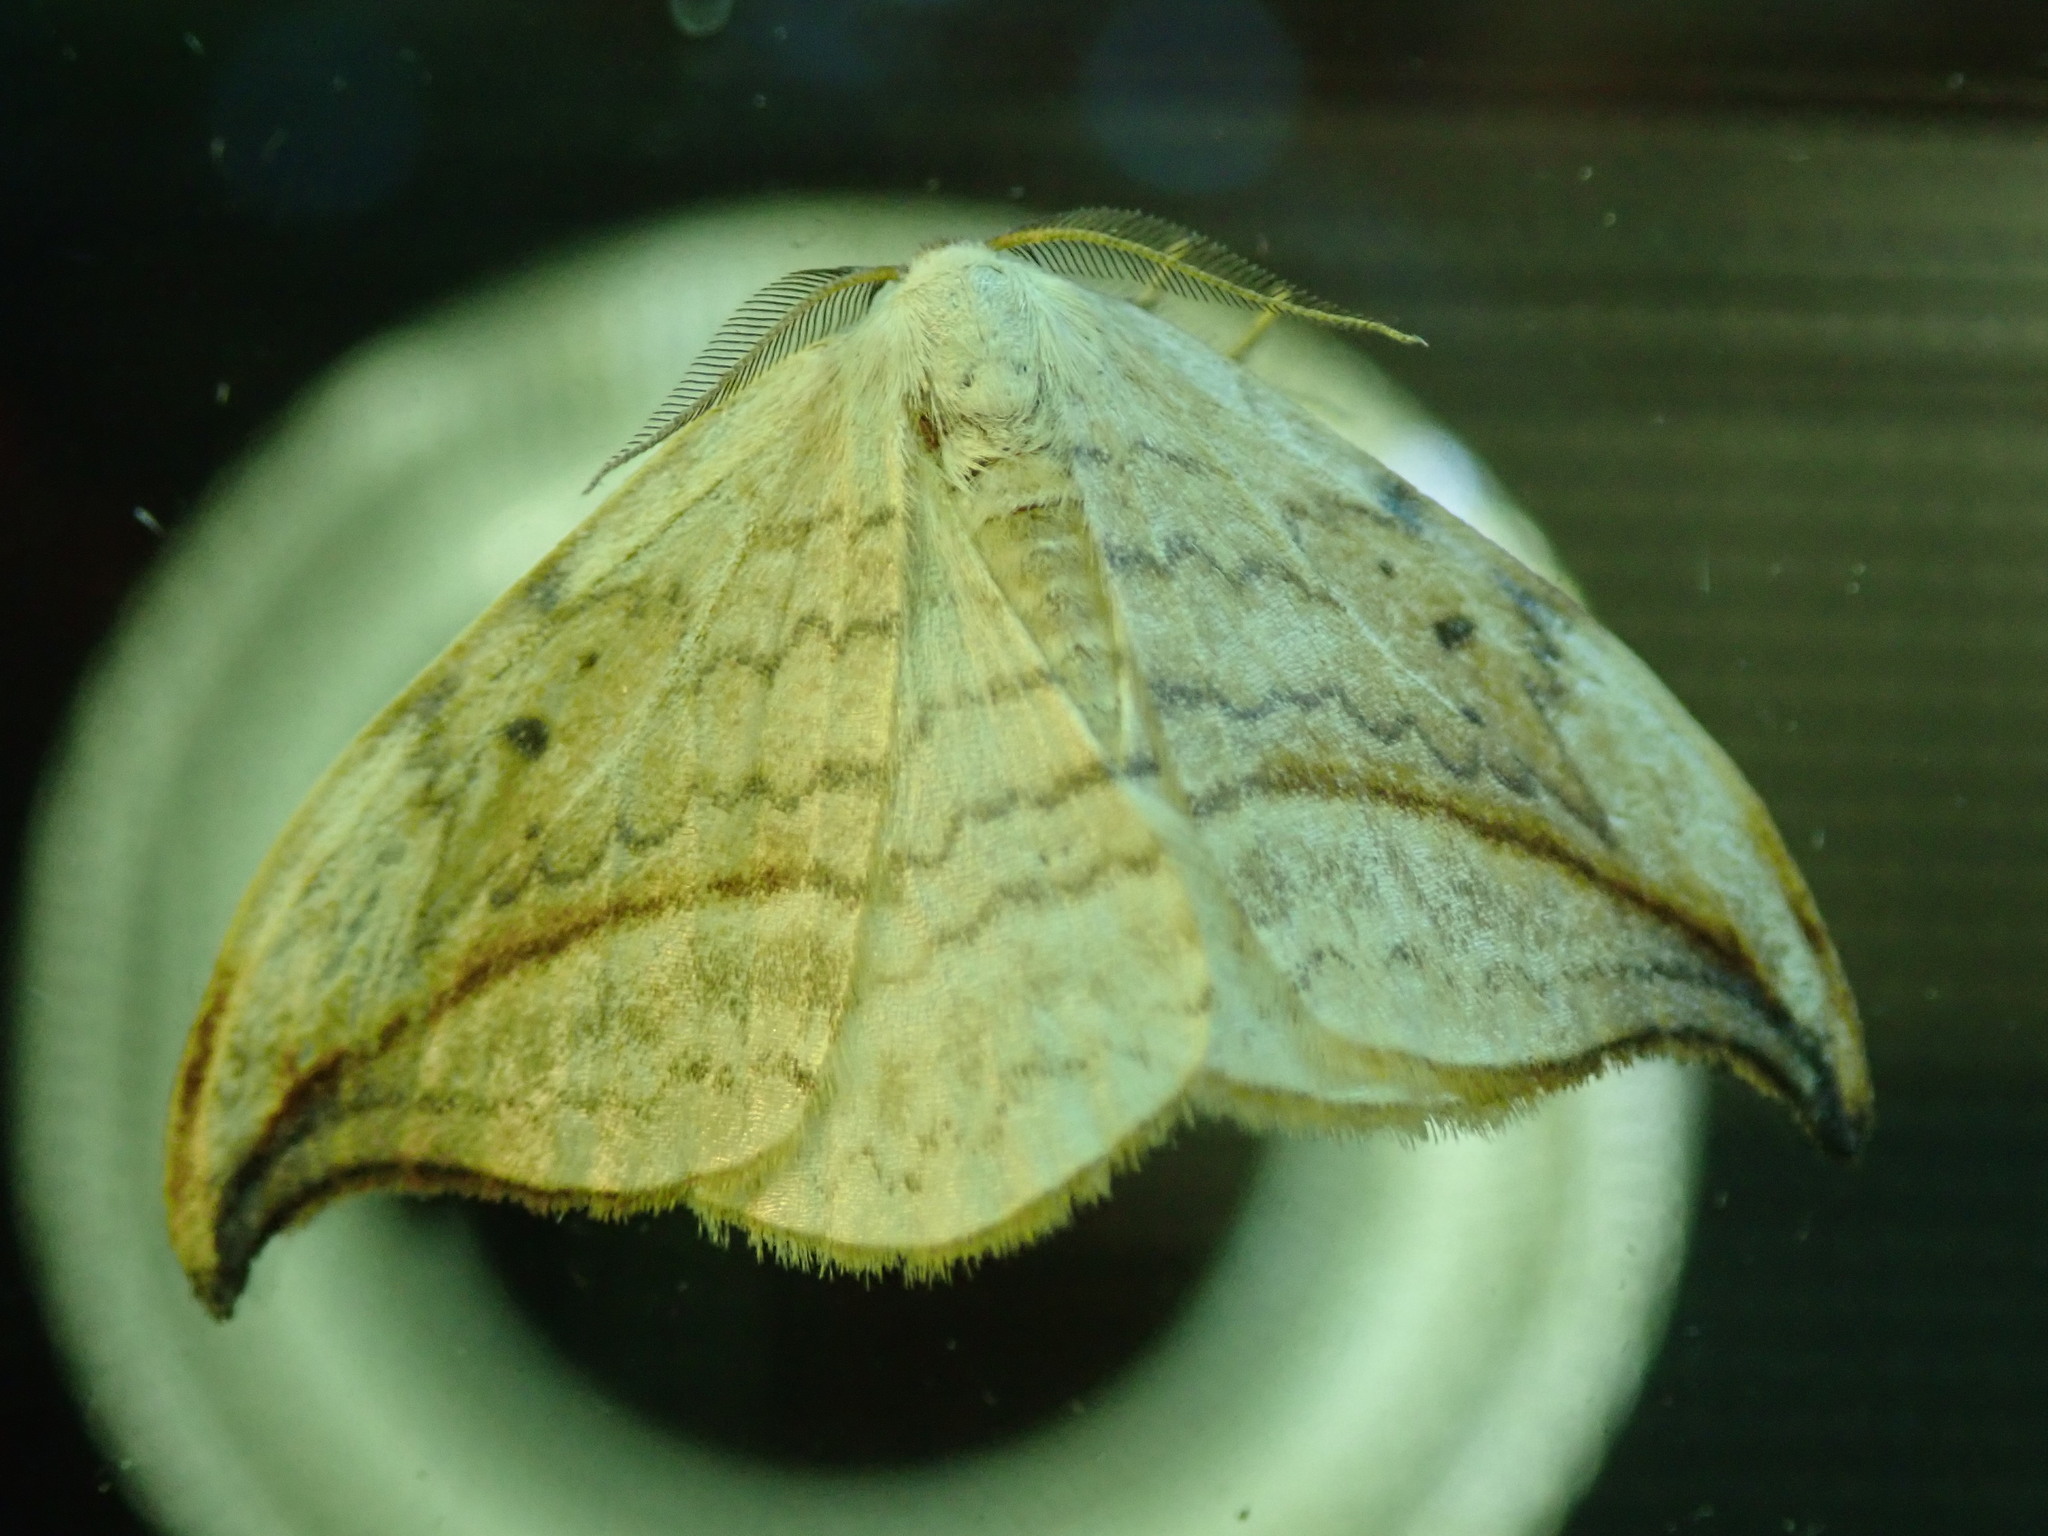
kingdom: Animalia
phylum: Arthropoda
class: Insecta
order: Lepidoptera
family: Drepanidae
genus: Drepana
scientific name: Drepana arcuata
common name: Arched hooktip moth
